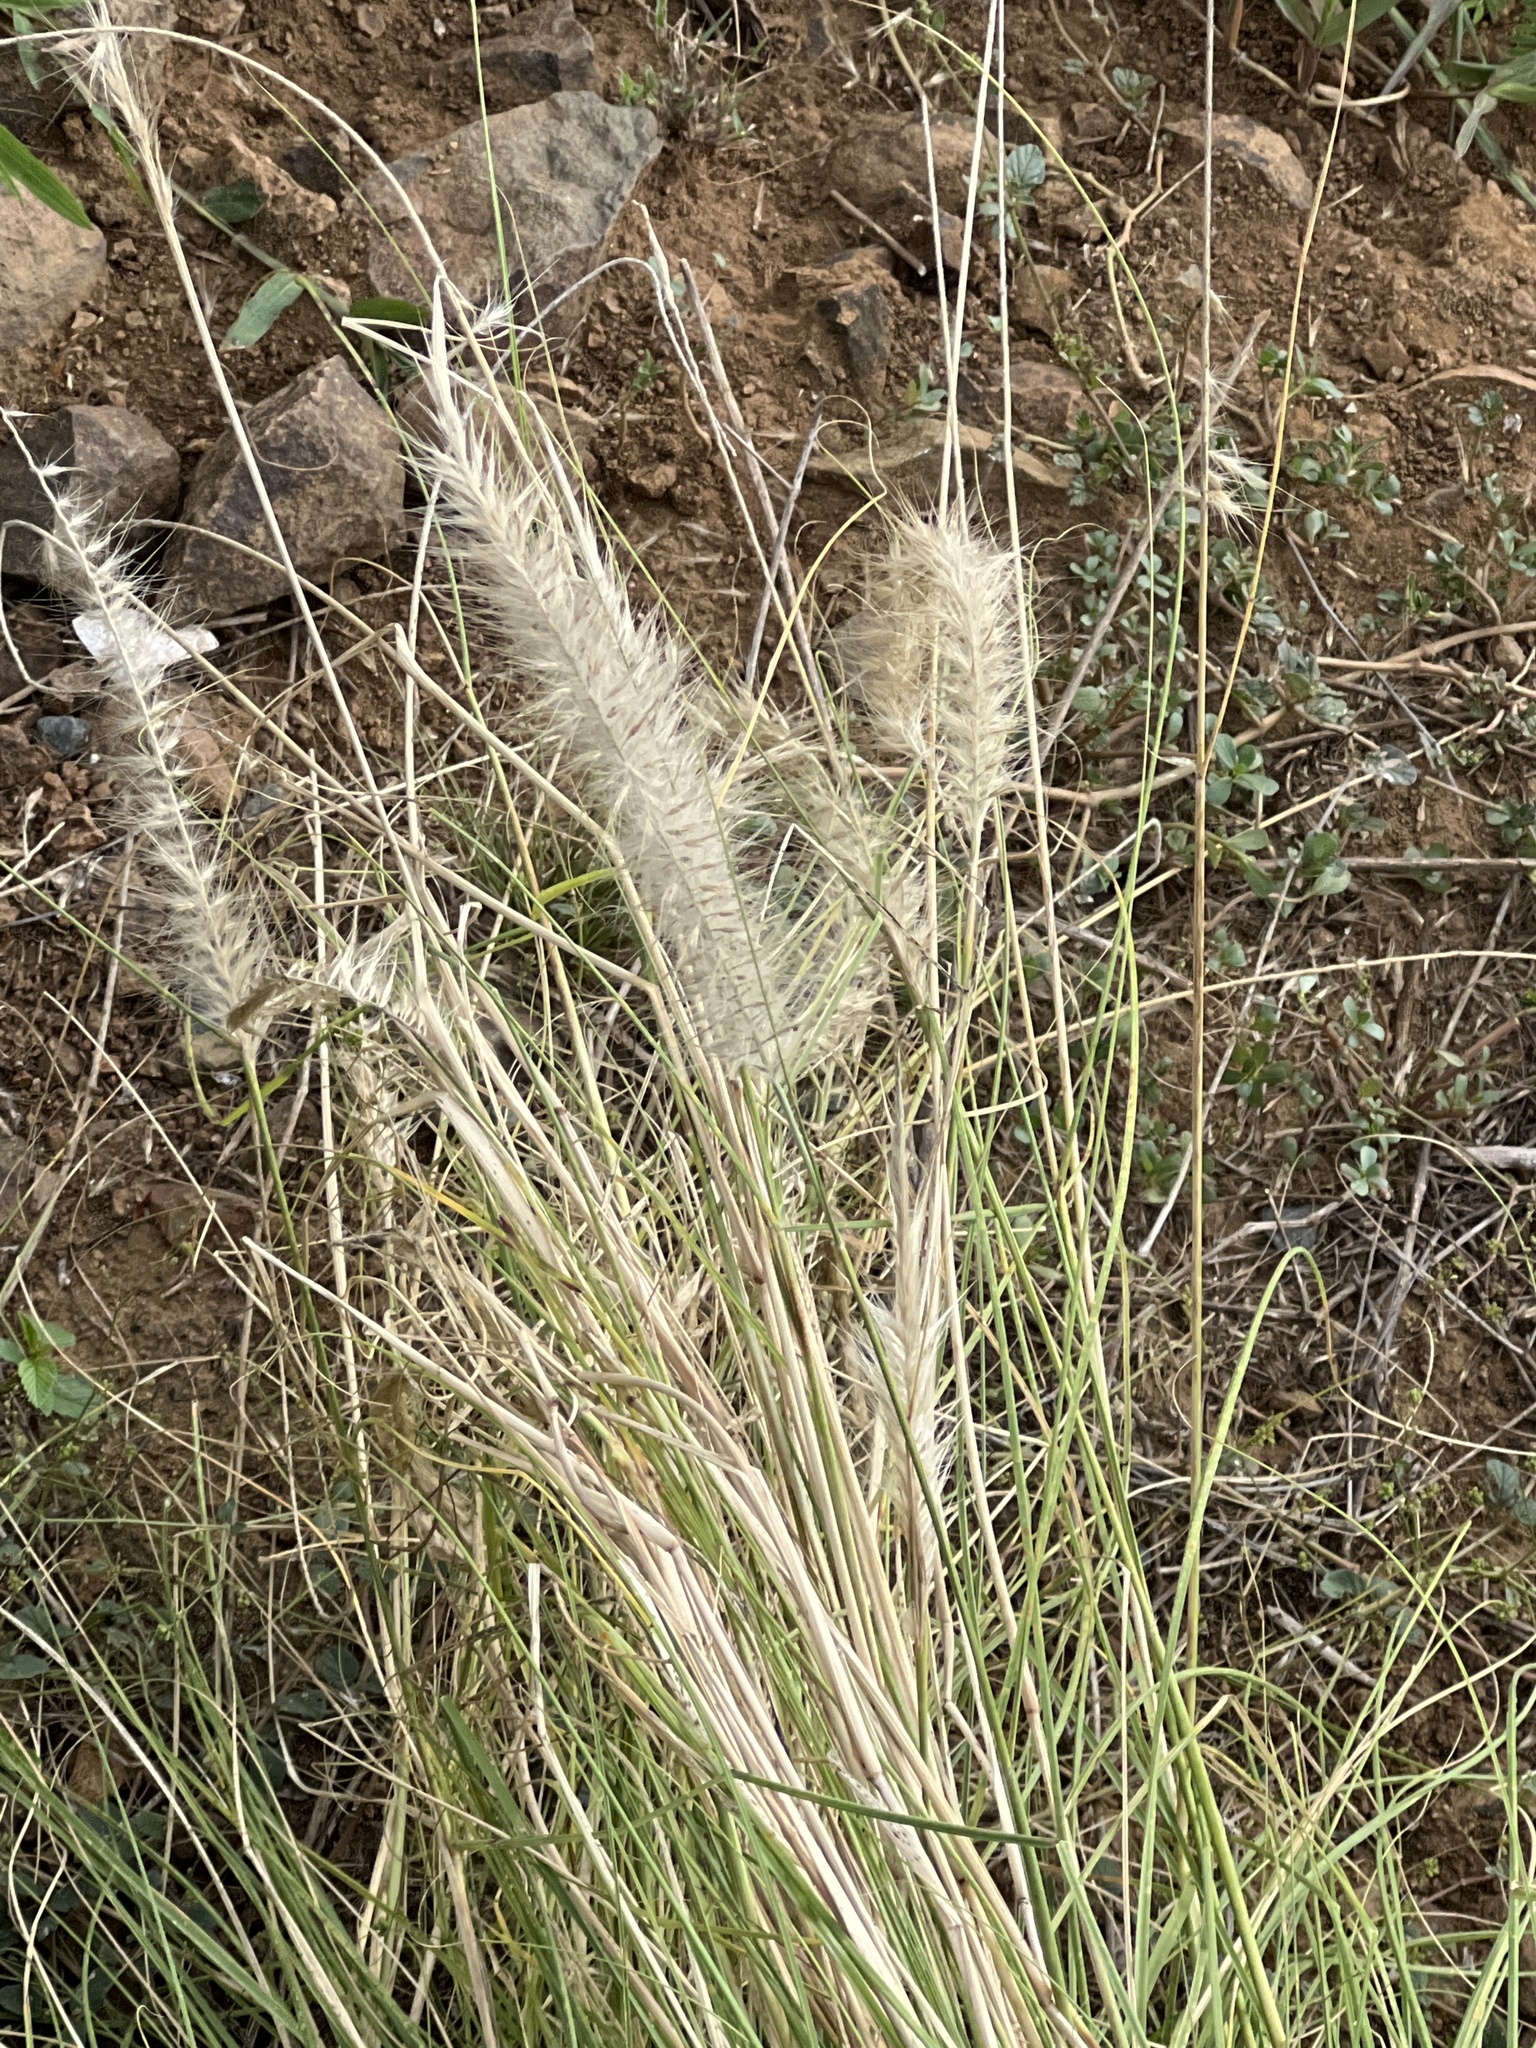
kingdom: Plantae
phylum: Tracheophyta
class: Liliopsida
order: Poales
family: Poaceae
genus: Cenchrus
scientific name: Cenchrus setaceus
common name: Crimson fountaingrass
